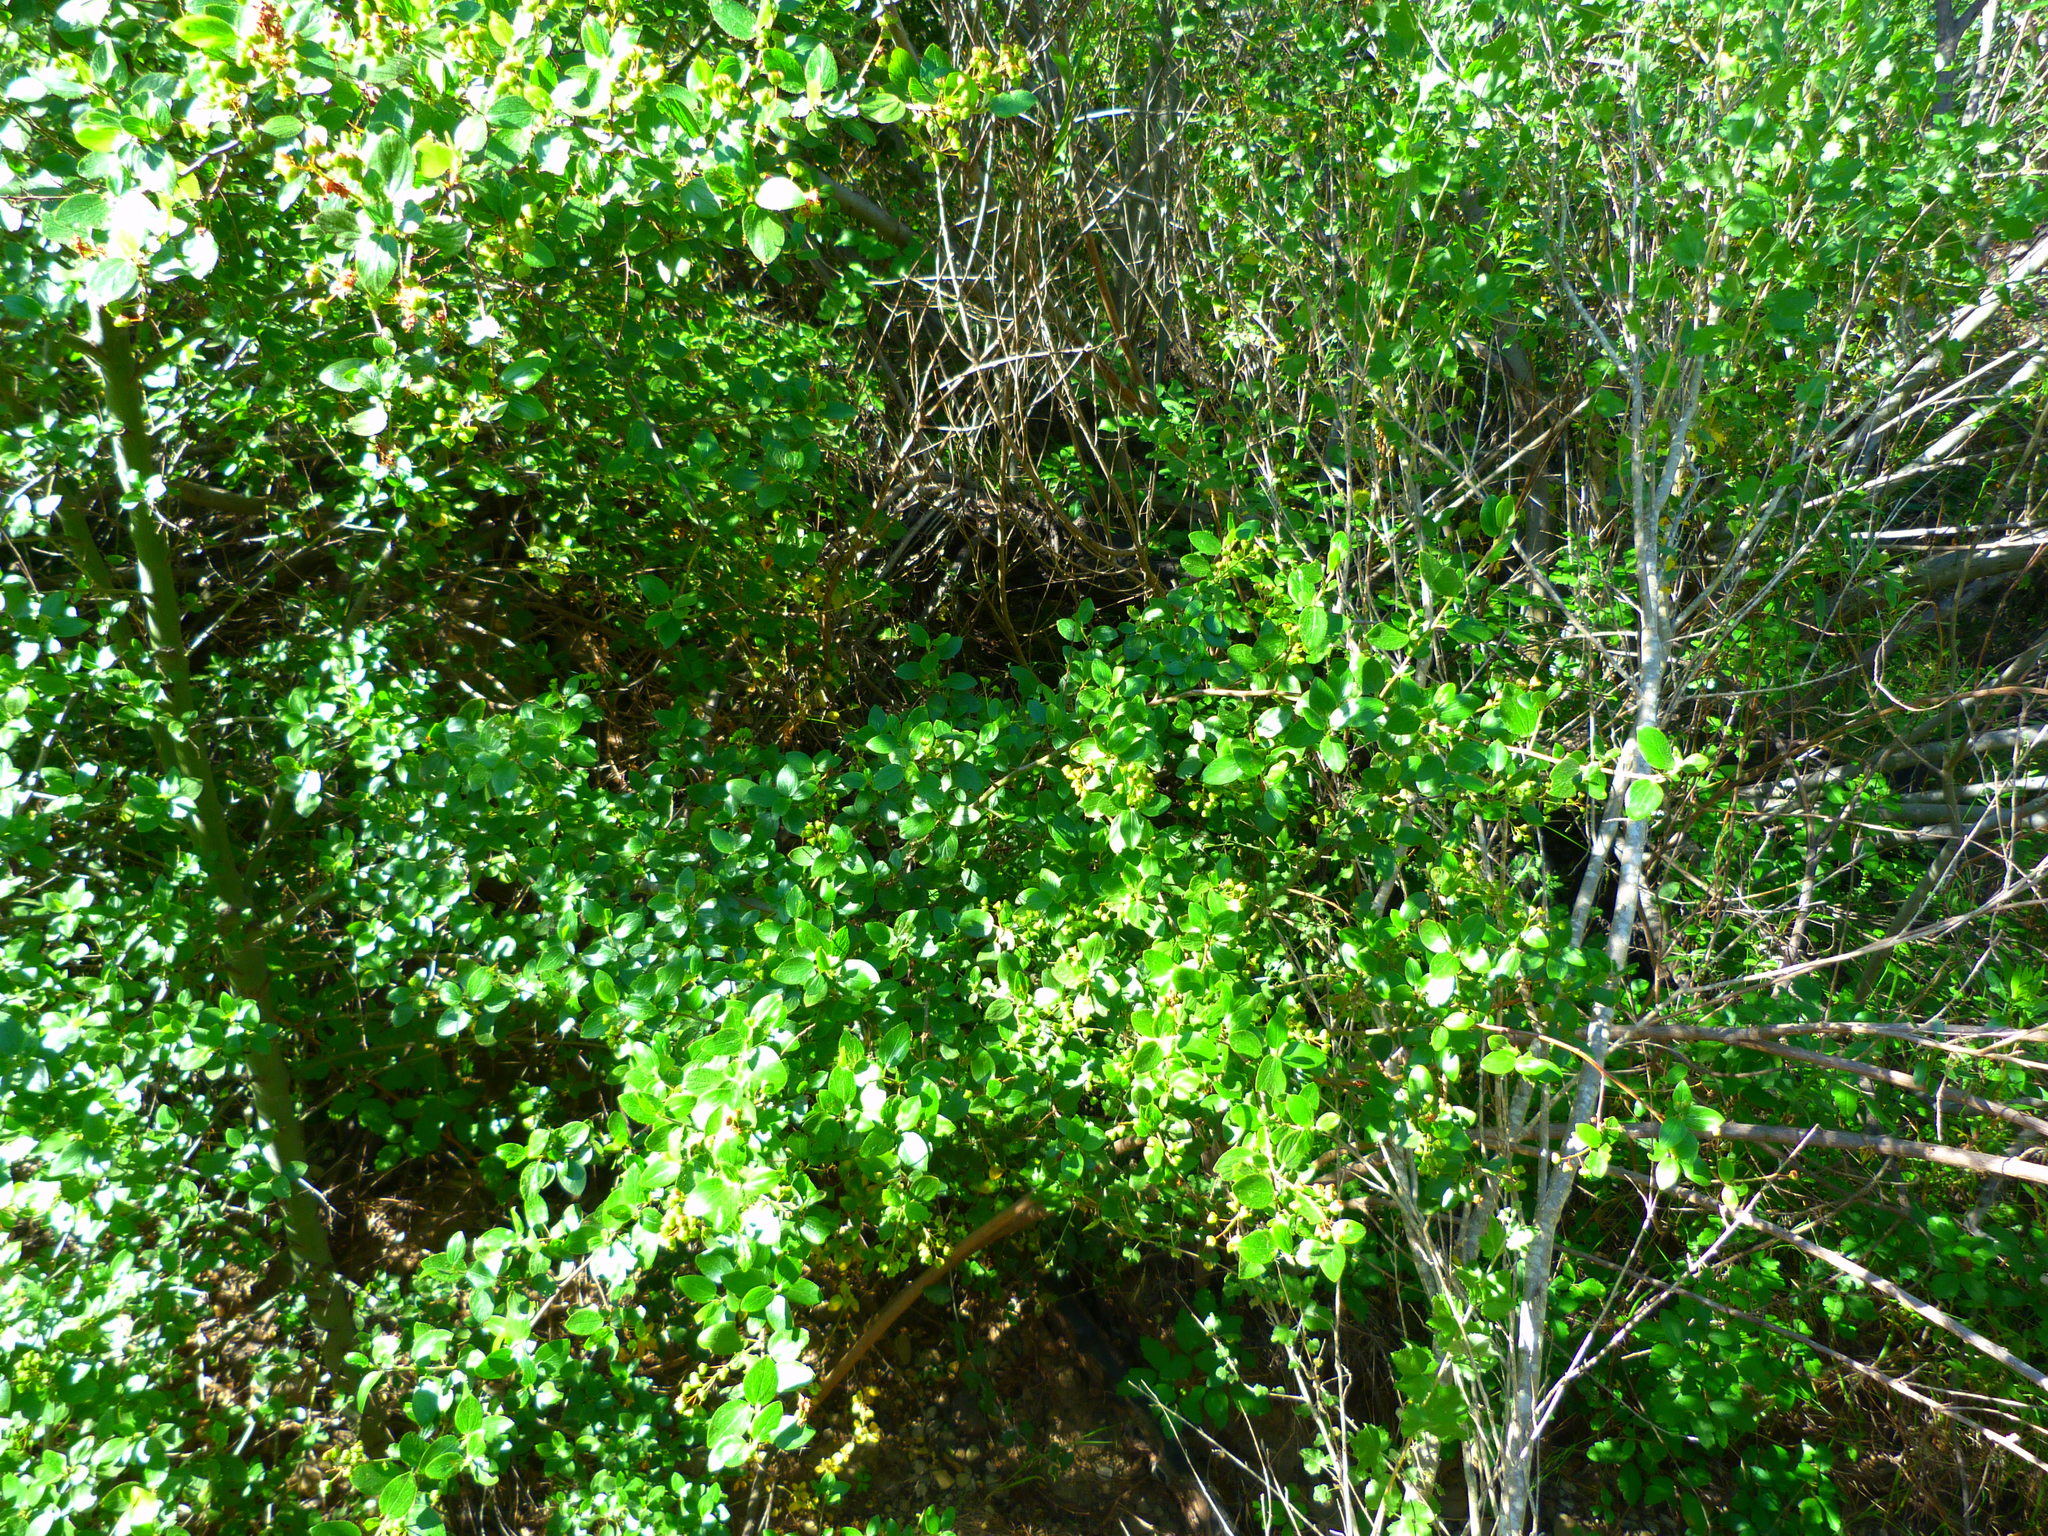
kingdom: Plantae
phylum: Tracheophyta
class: Magnoliopsida
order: Rosales
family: Rhamnaceae
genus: Ceanothus
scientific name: Ceanothus oliganthus
